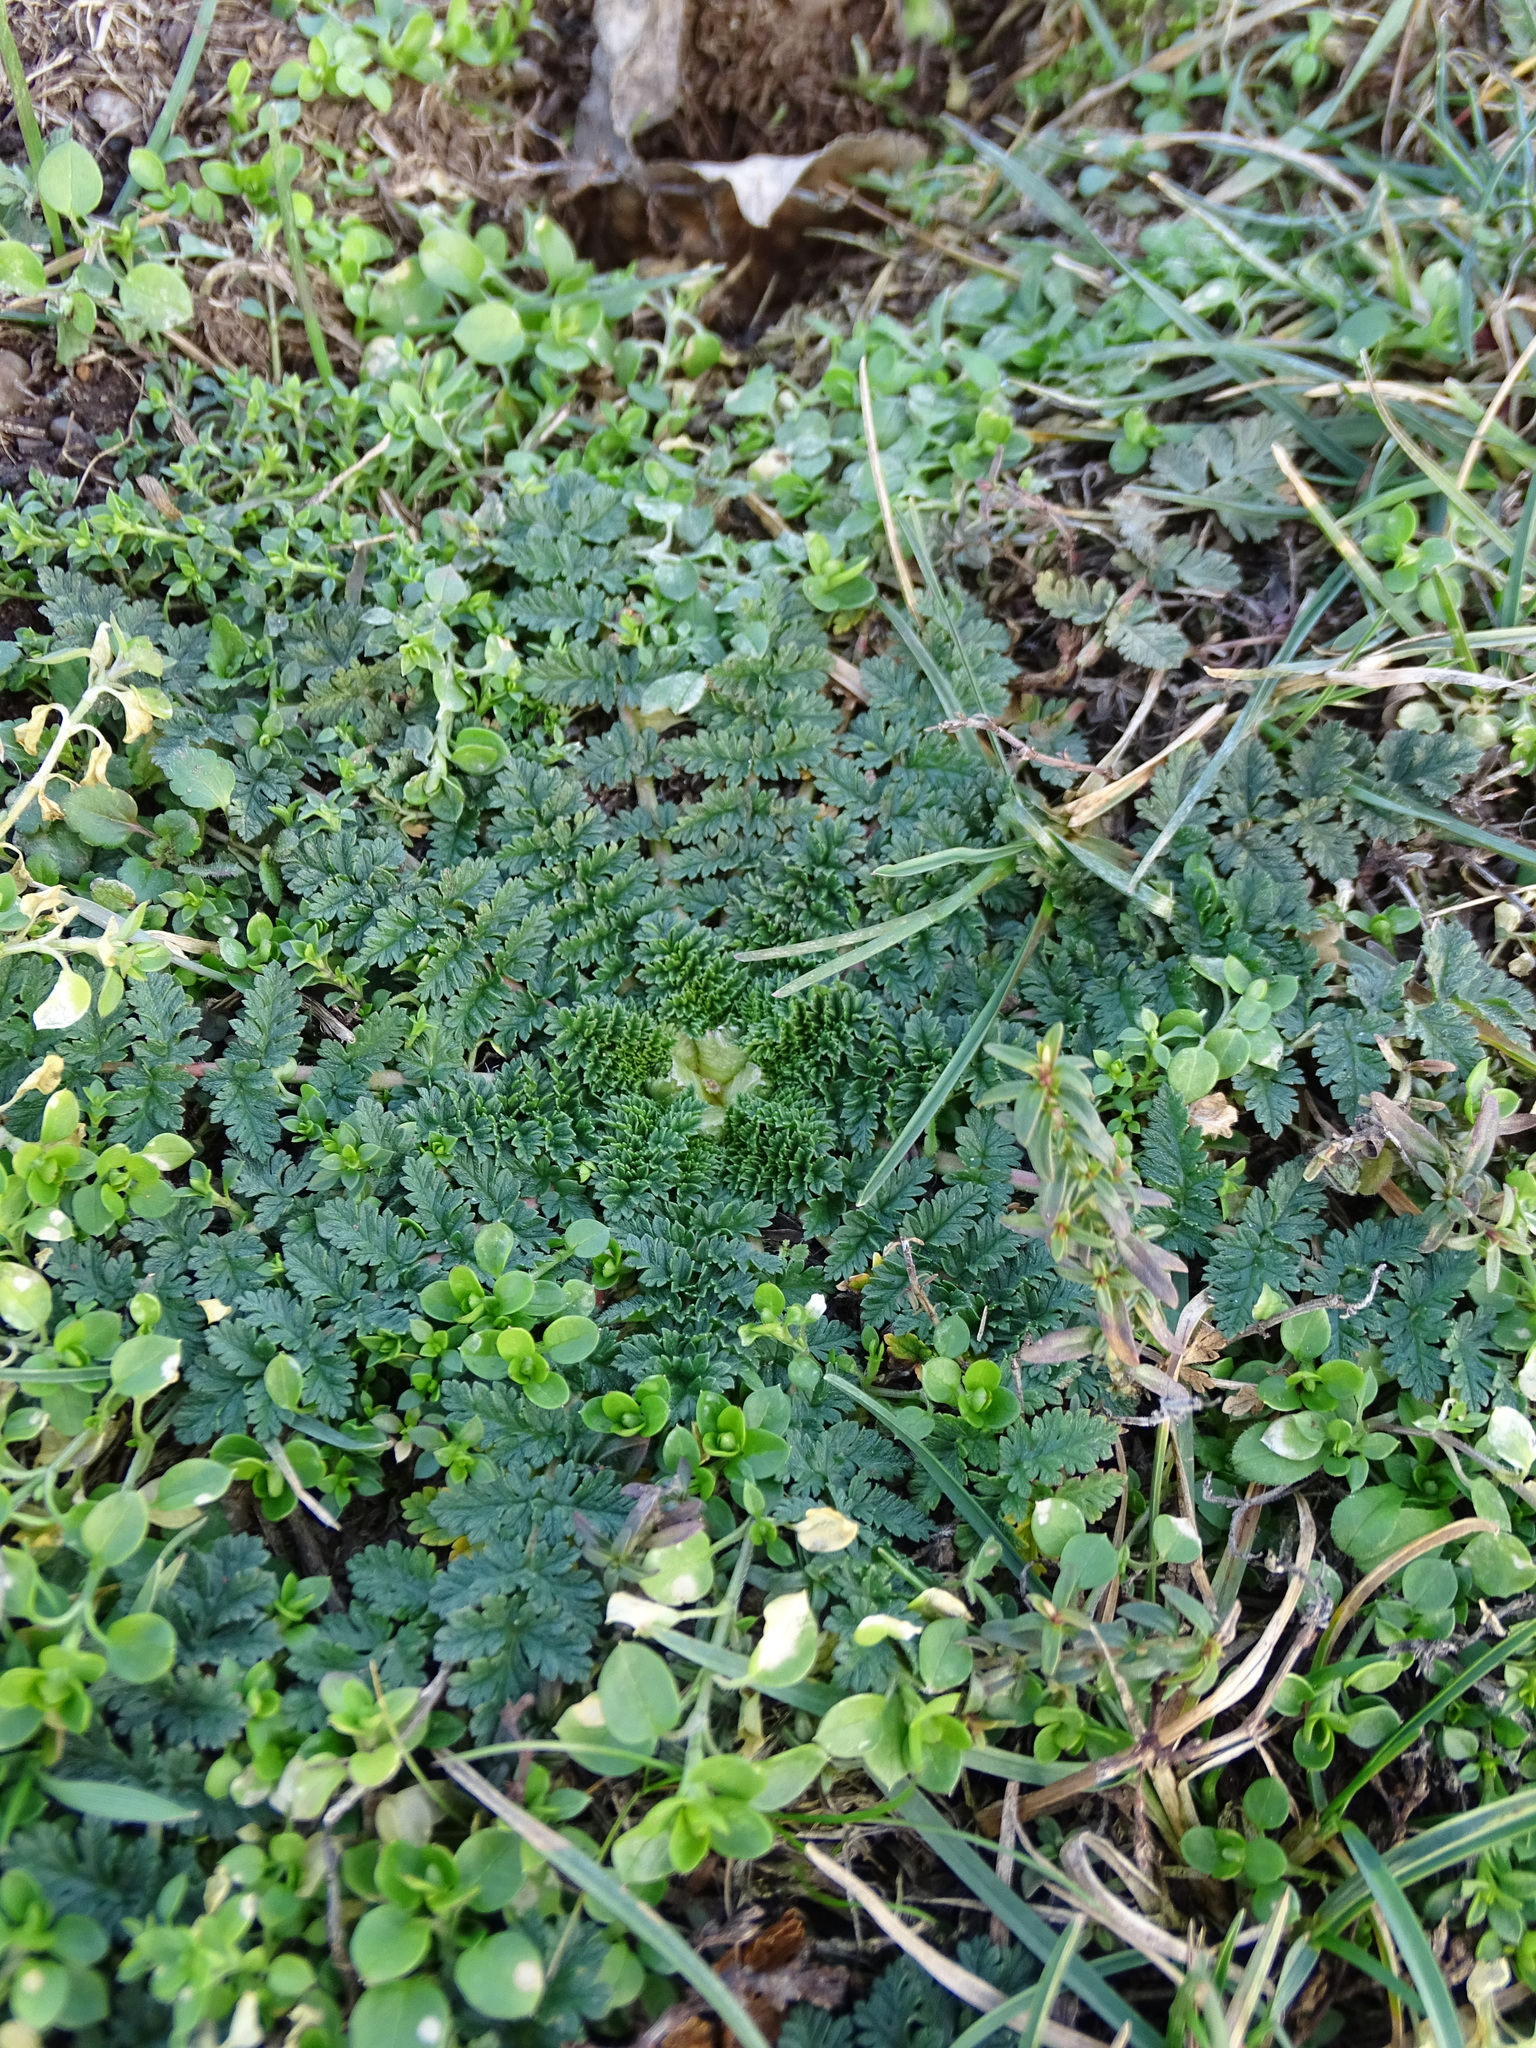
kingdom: Plantae
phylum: Tracheophyta
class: Magnoliopsida
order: Geraniales
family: Geraniaceae
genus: Erodium
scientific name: Erodium cicutarium
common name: Common stork's-bill
